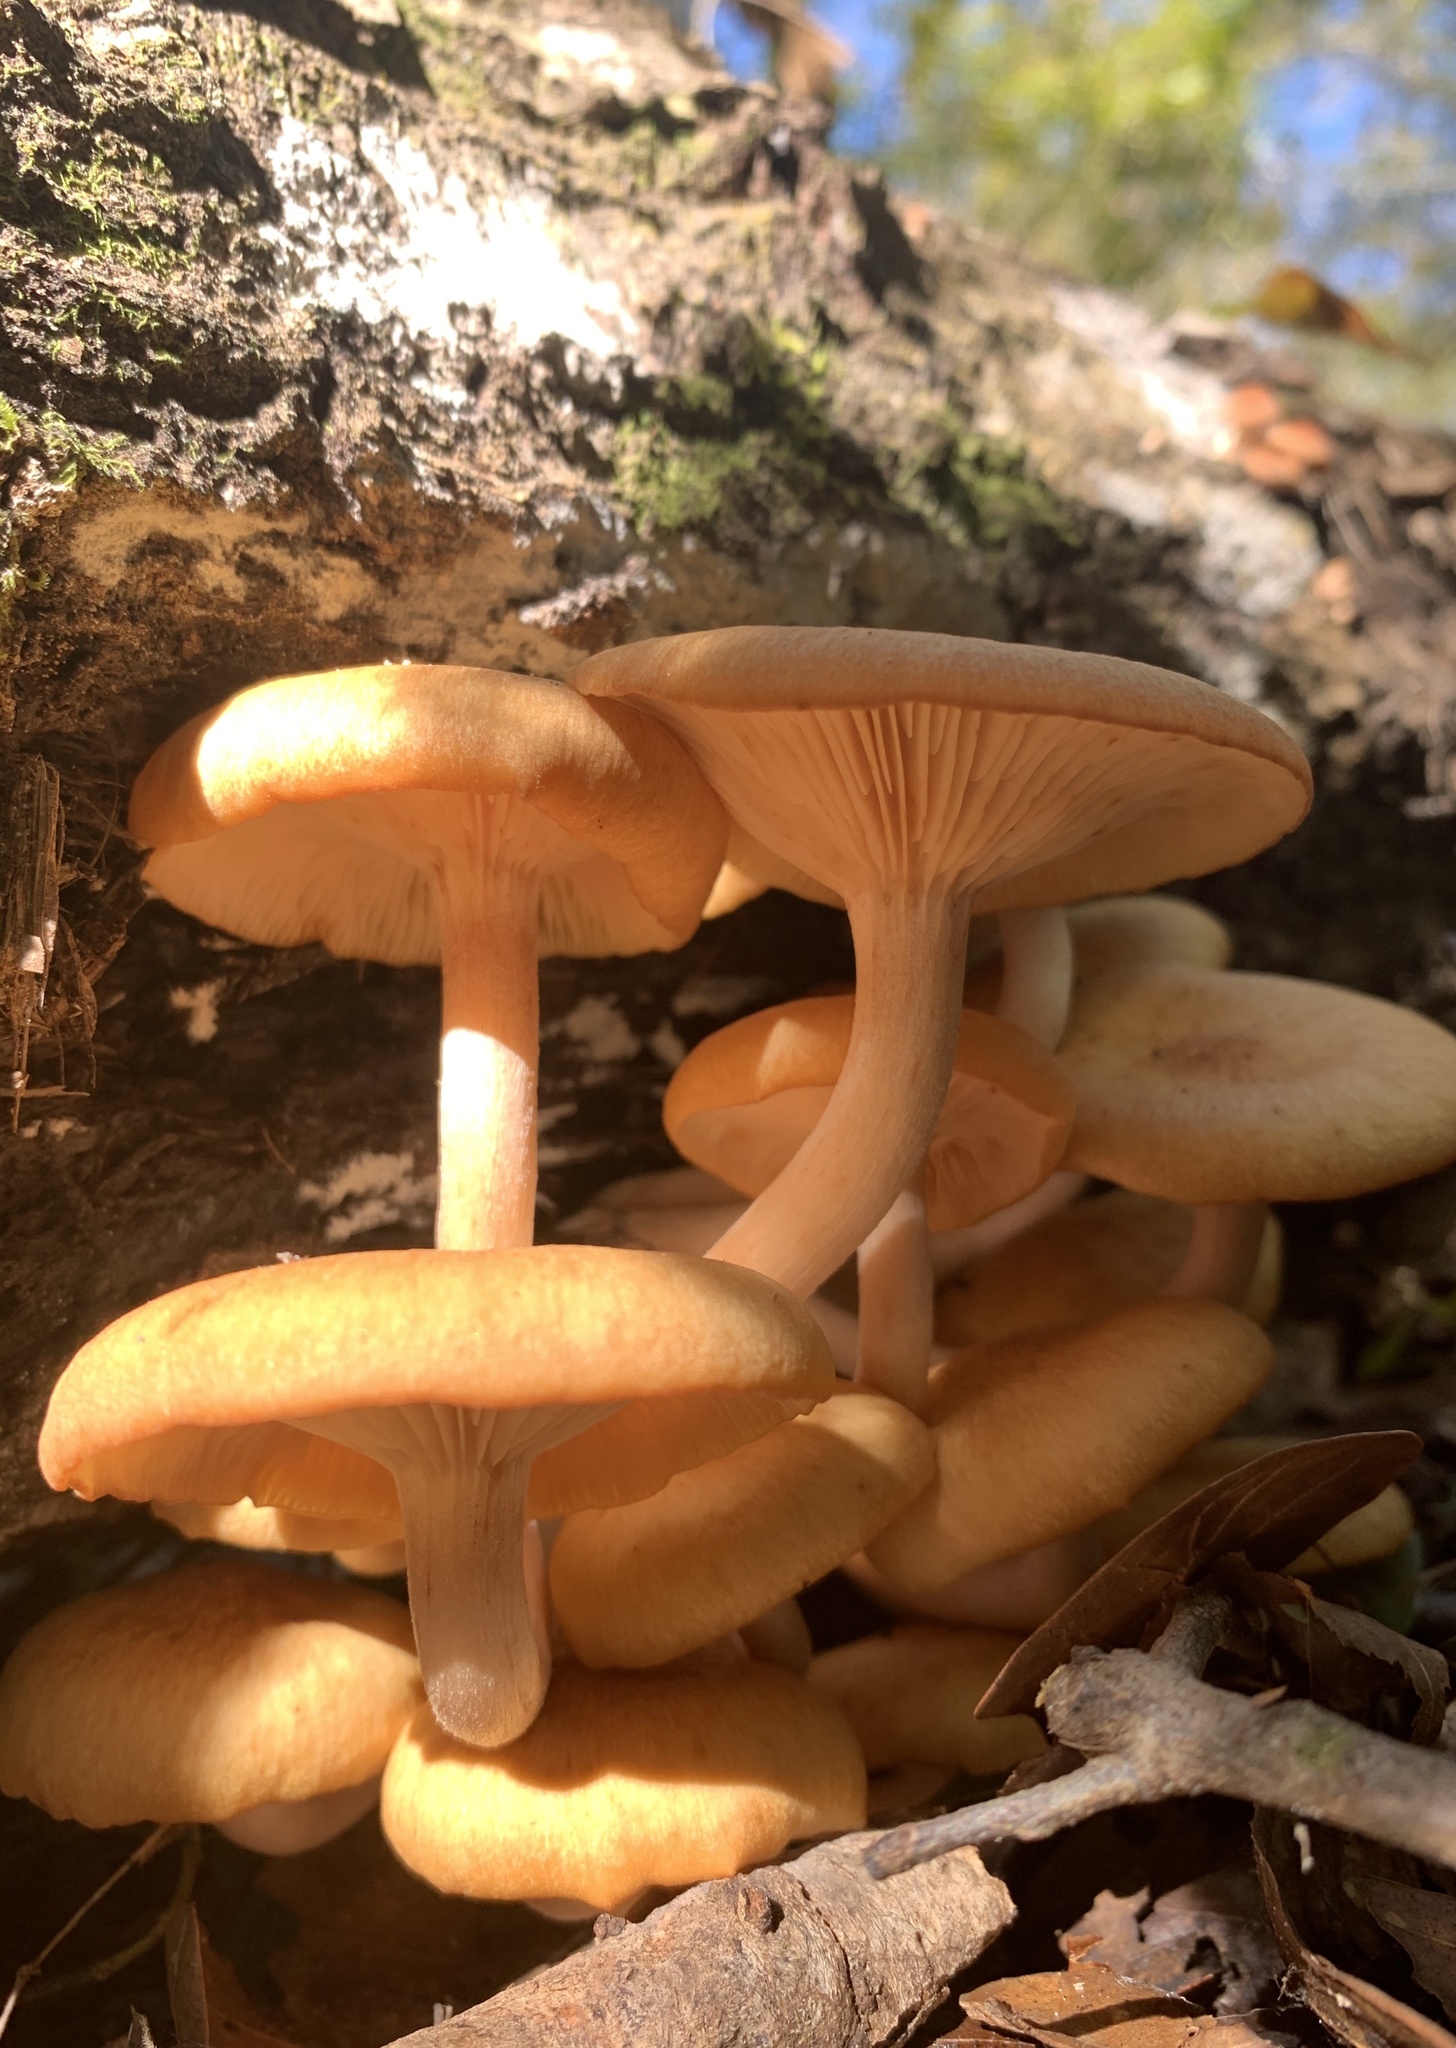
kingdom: Fungi
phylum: Basidiomycota
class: Agaricomycetes
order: Agaricales
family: Physalacriaceae
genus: Desarmillaria
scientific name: Desarmillaria caespitosa
